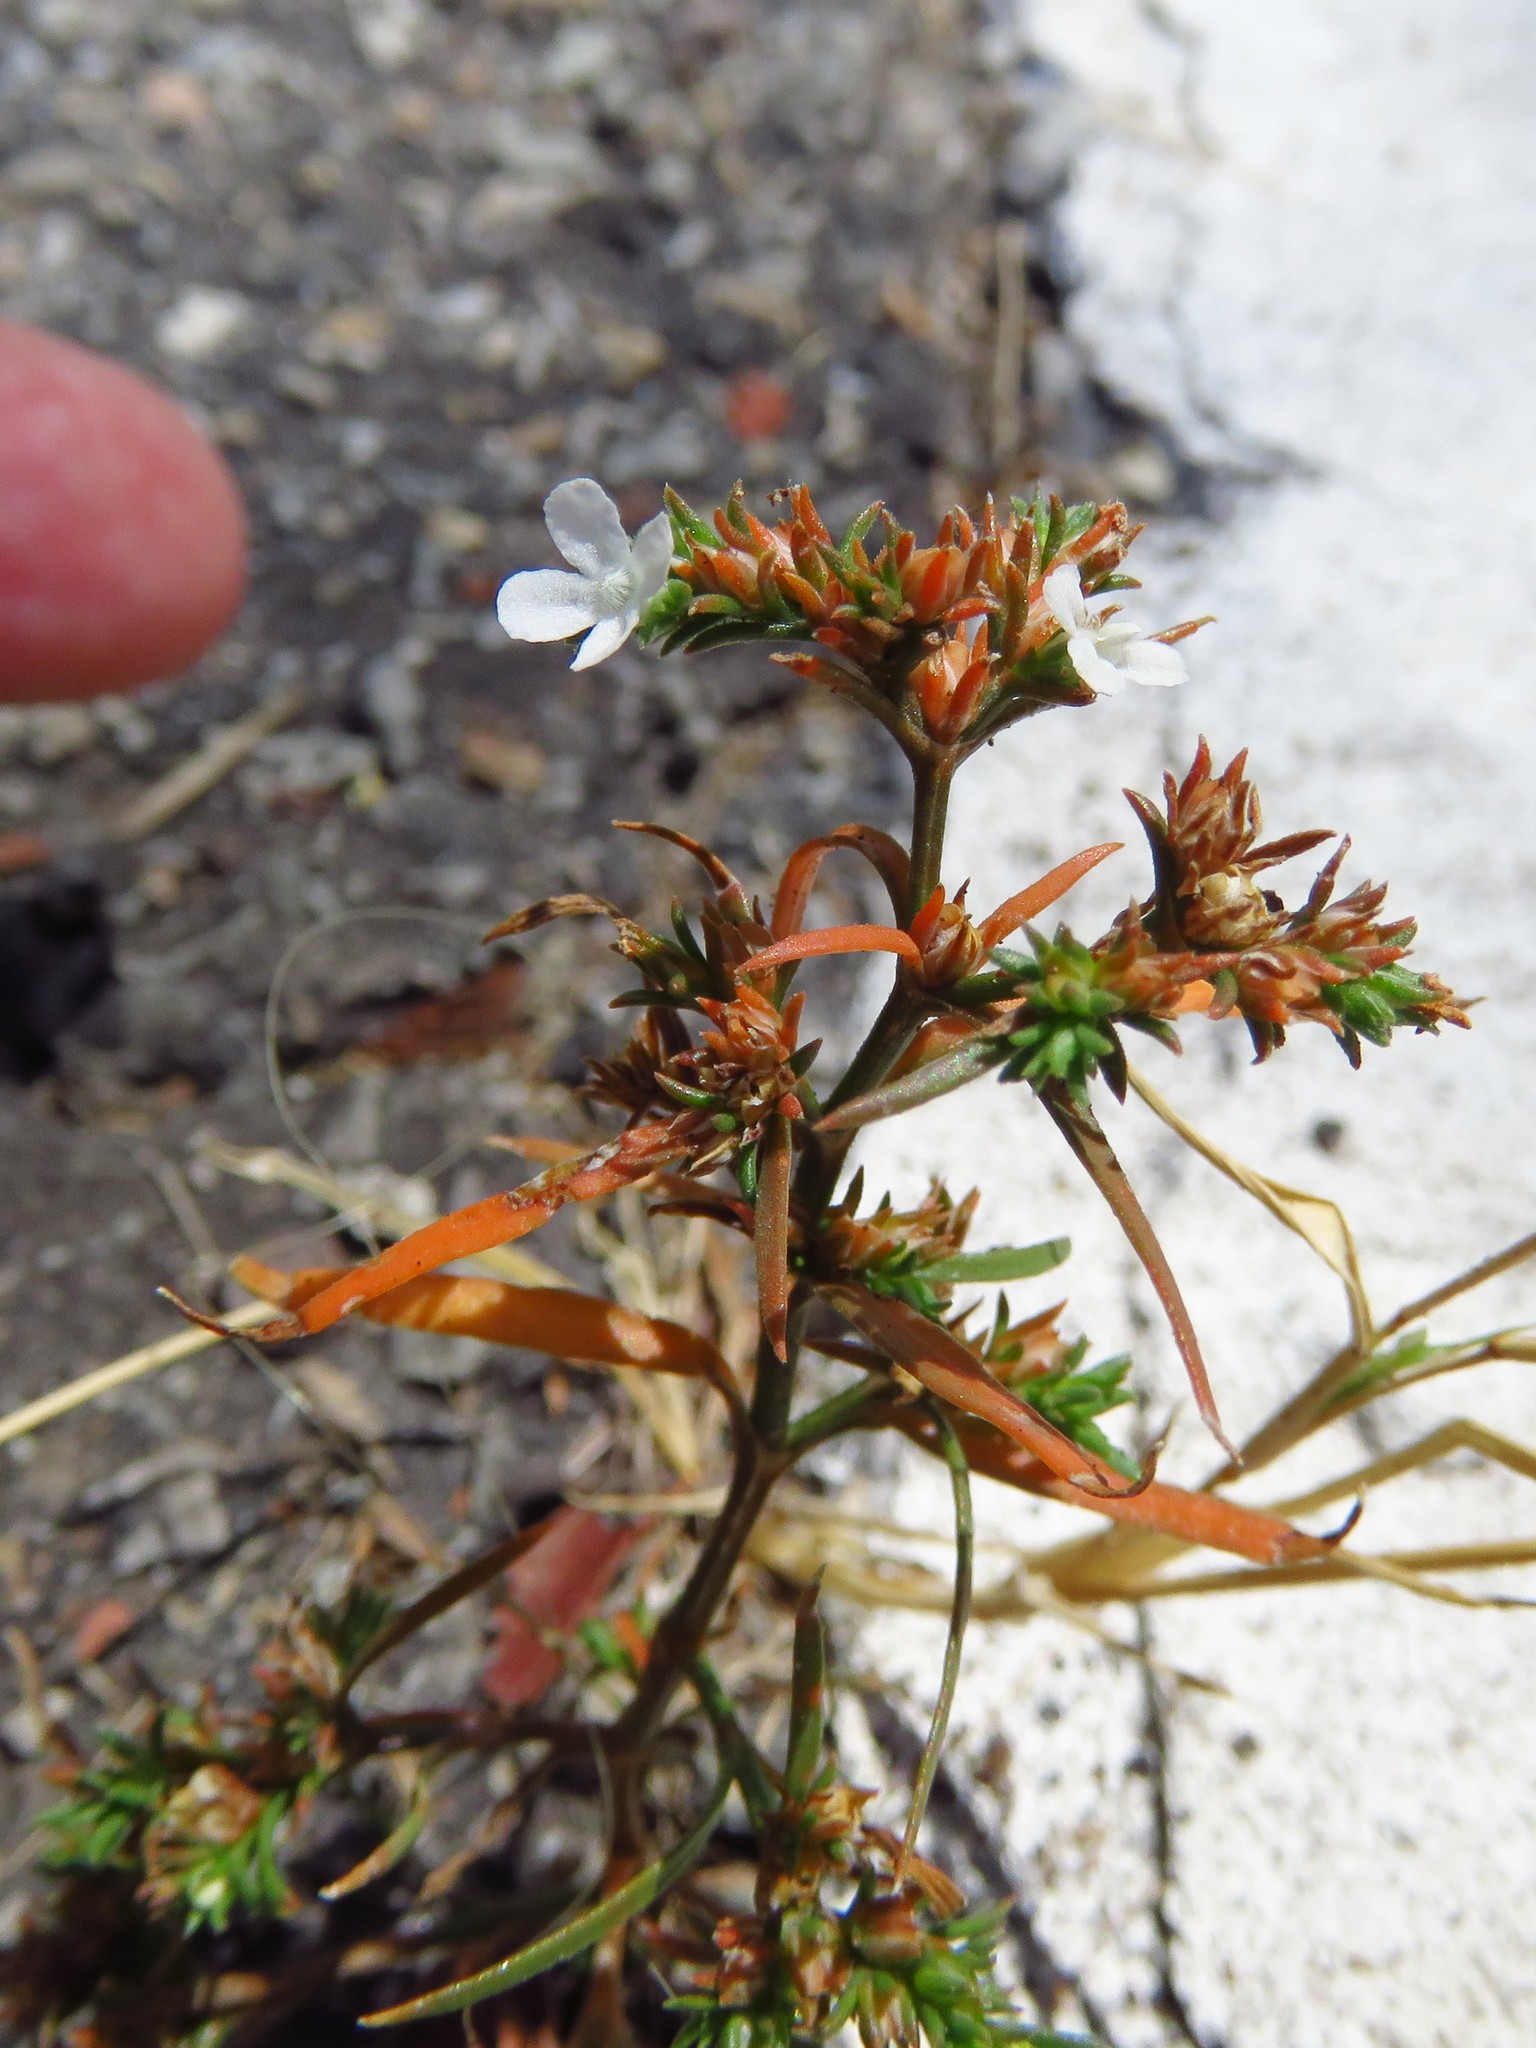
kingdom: Plantae
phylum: Tracheophyta
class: Magnoliopsida
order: Lamiales
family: Tetrachondraceae
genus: Polypremum
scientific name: Polypremum procumbens
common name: Juniper-leaf
